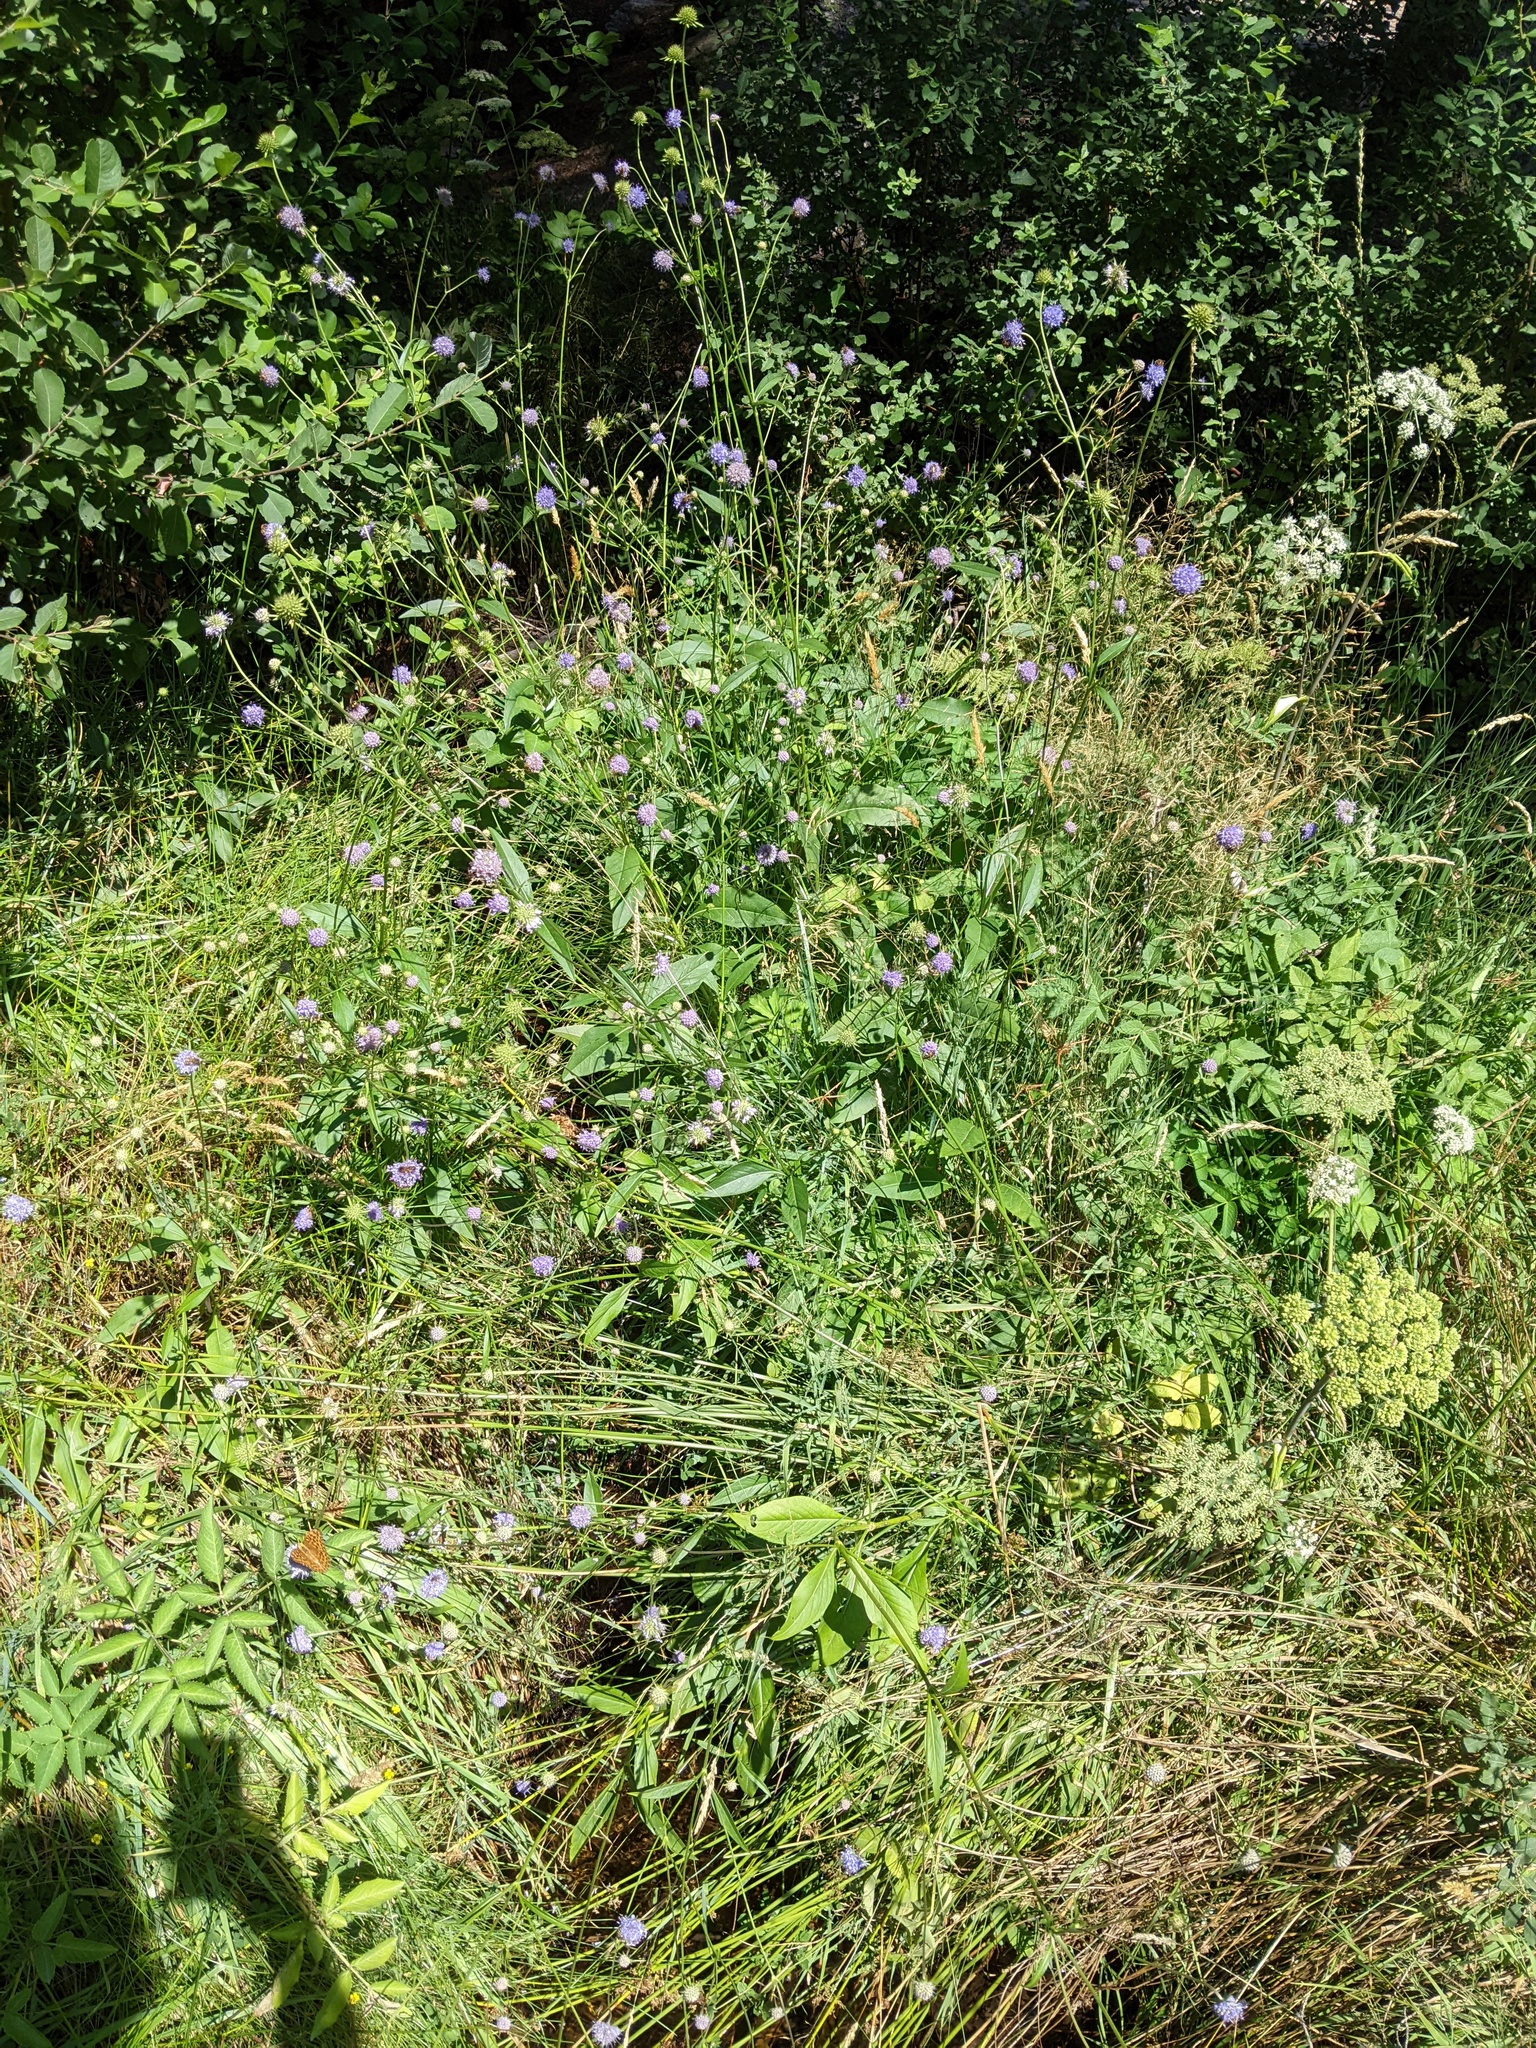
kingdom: Plantae
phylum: Tracheophyta
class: Magnoliopsida
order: Dipsacales
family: Caprifoliaceae
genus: Succisa
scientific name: Succisa pratensis
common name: Devil's-bit
